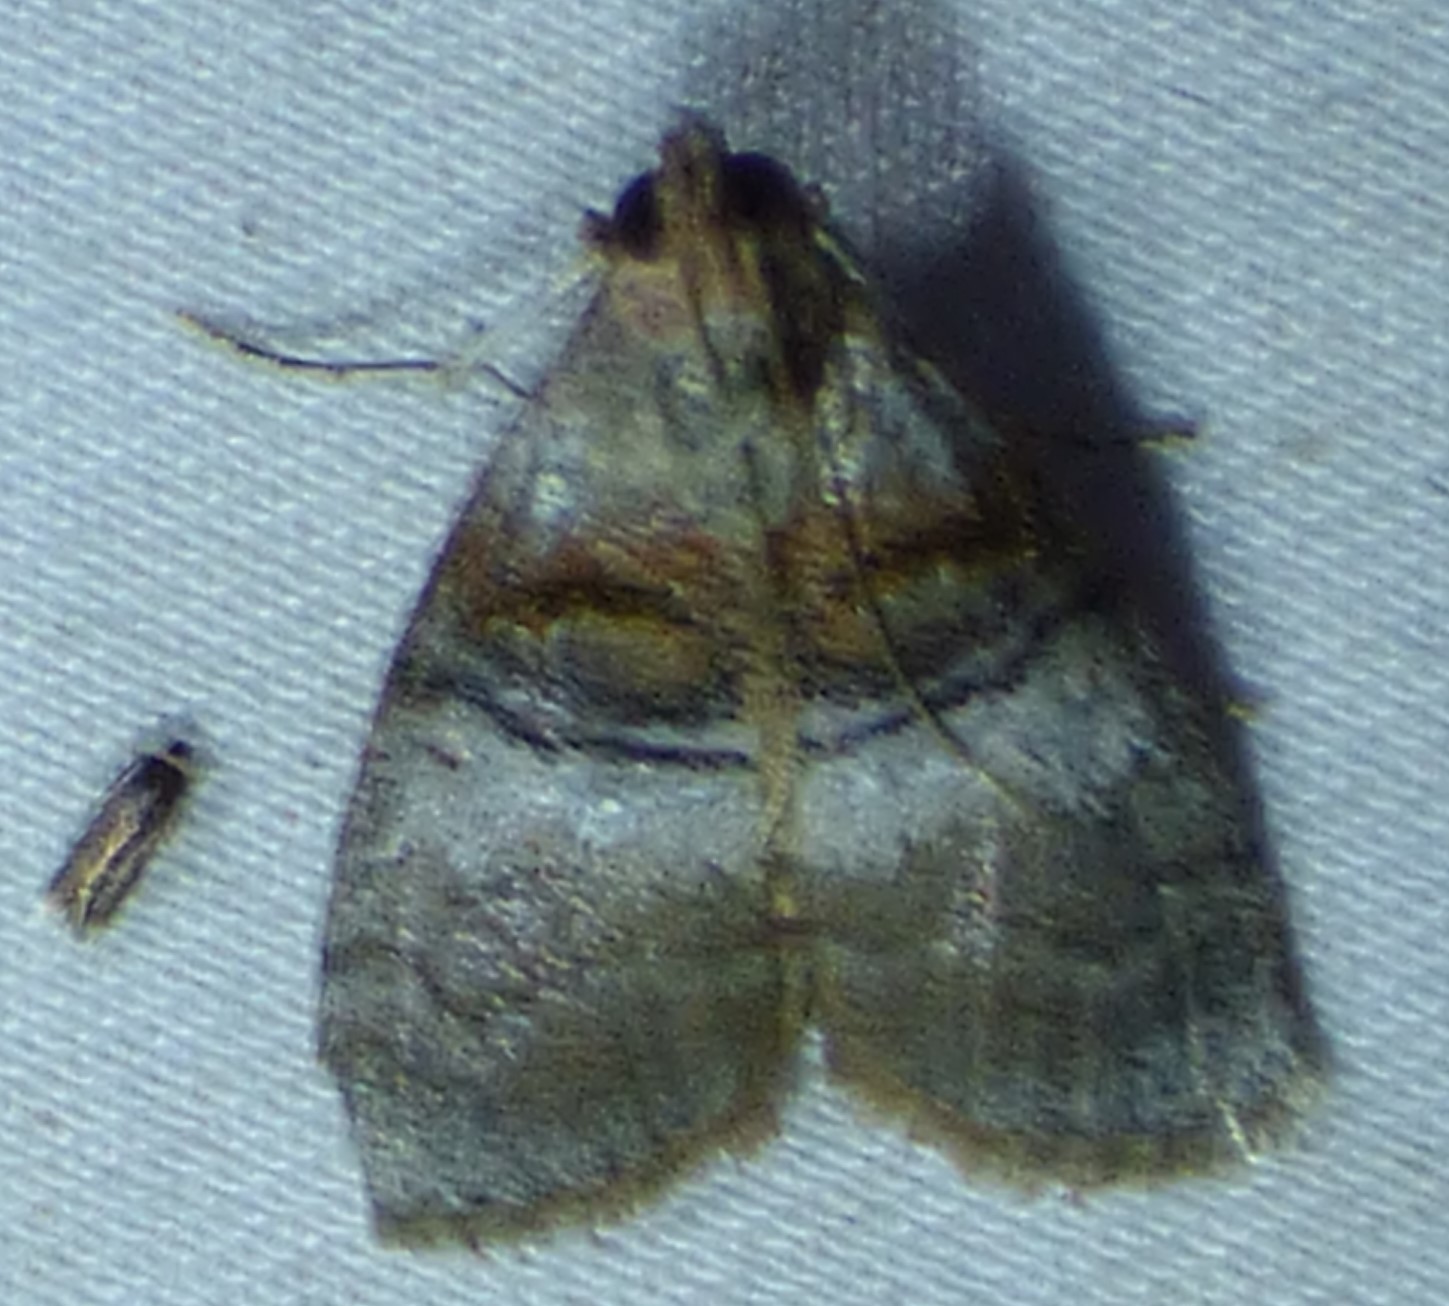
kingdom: Animalia
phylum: Arthropoda
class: Insecta
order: Lepidoptera
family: Pyralidae
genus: Pococera
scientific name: Pococera militella
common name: Sycamore webworm moth
